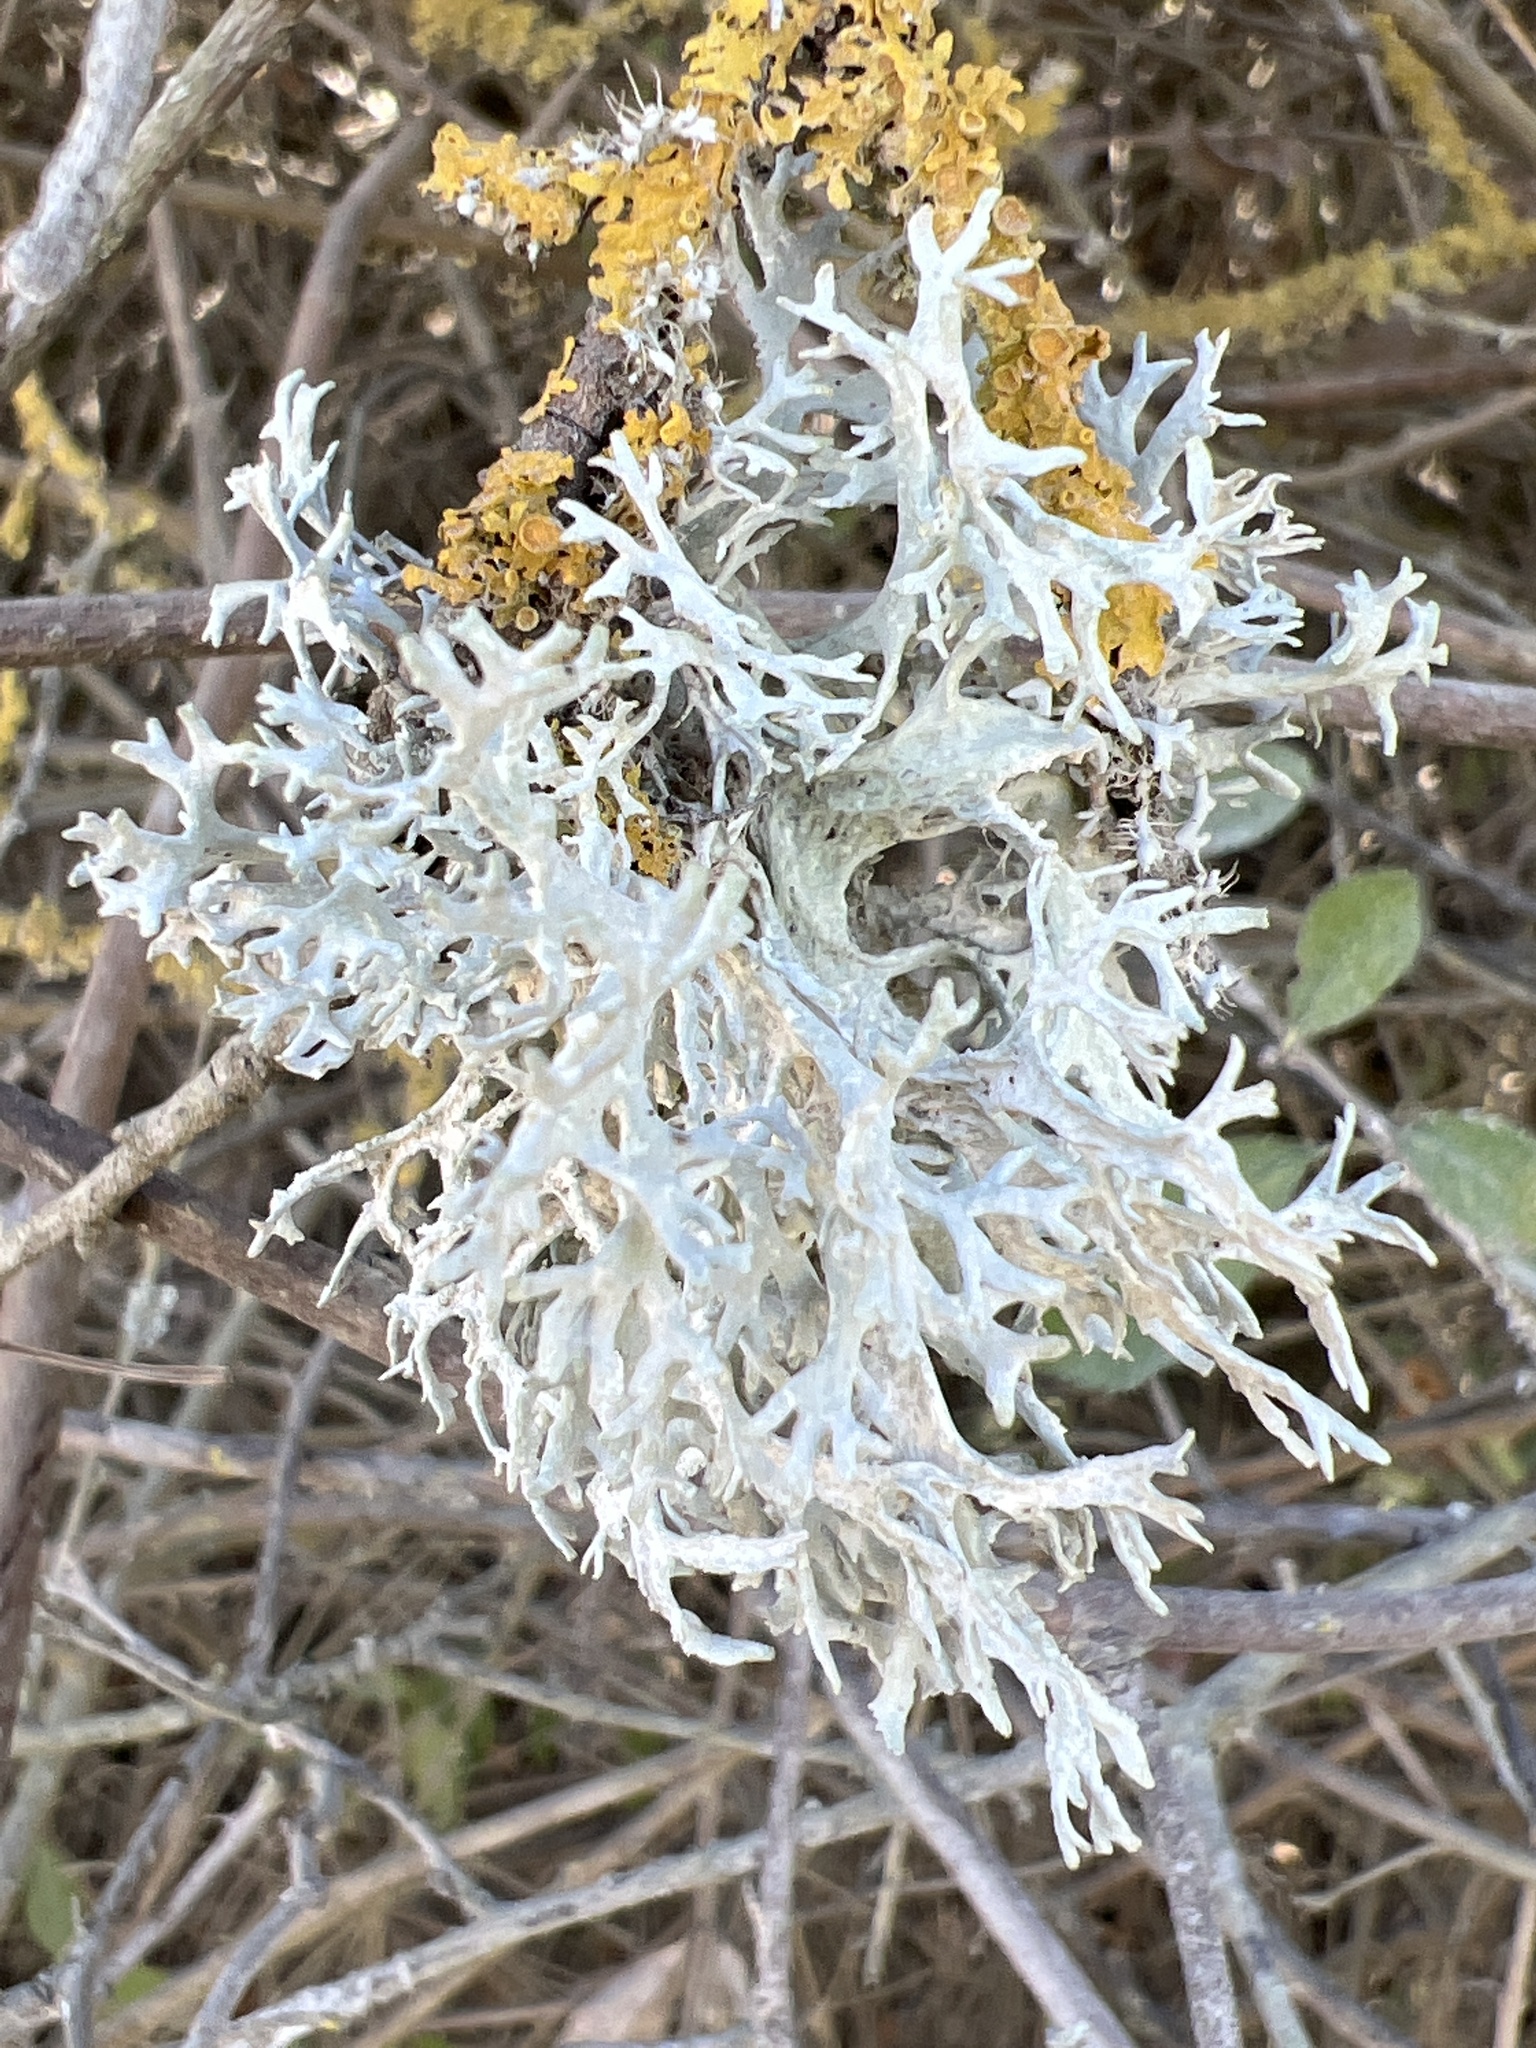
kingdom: Fungi
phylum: Ascomycota
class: Lecanoromycetes
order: Lecanorales
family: Parmeliaceae
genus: Evernia
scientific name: Evernia prunastri
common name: Oak moss
